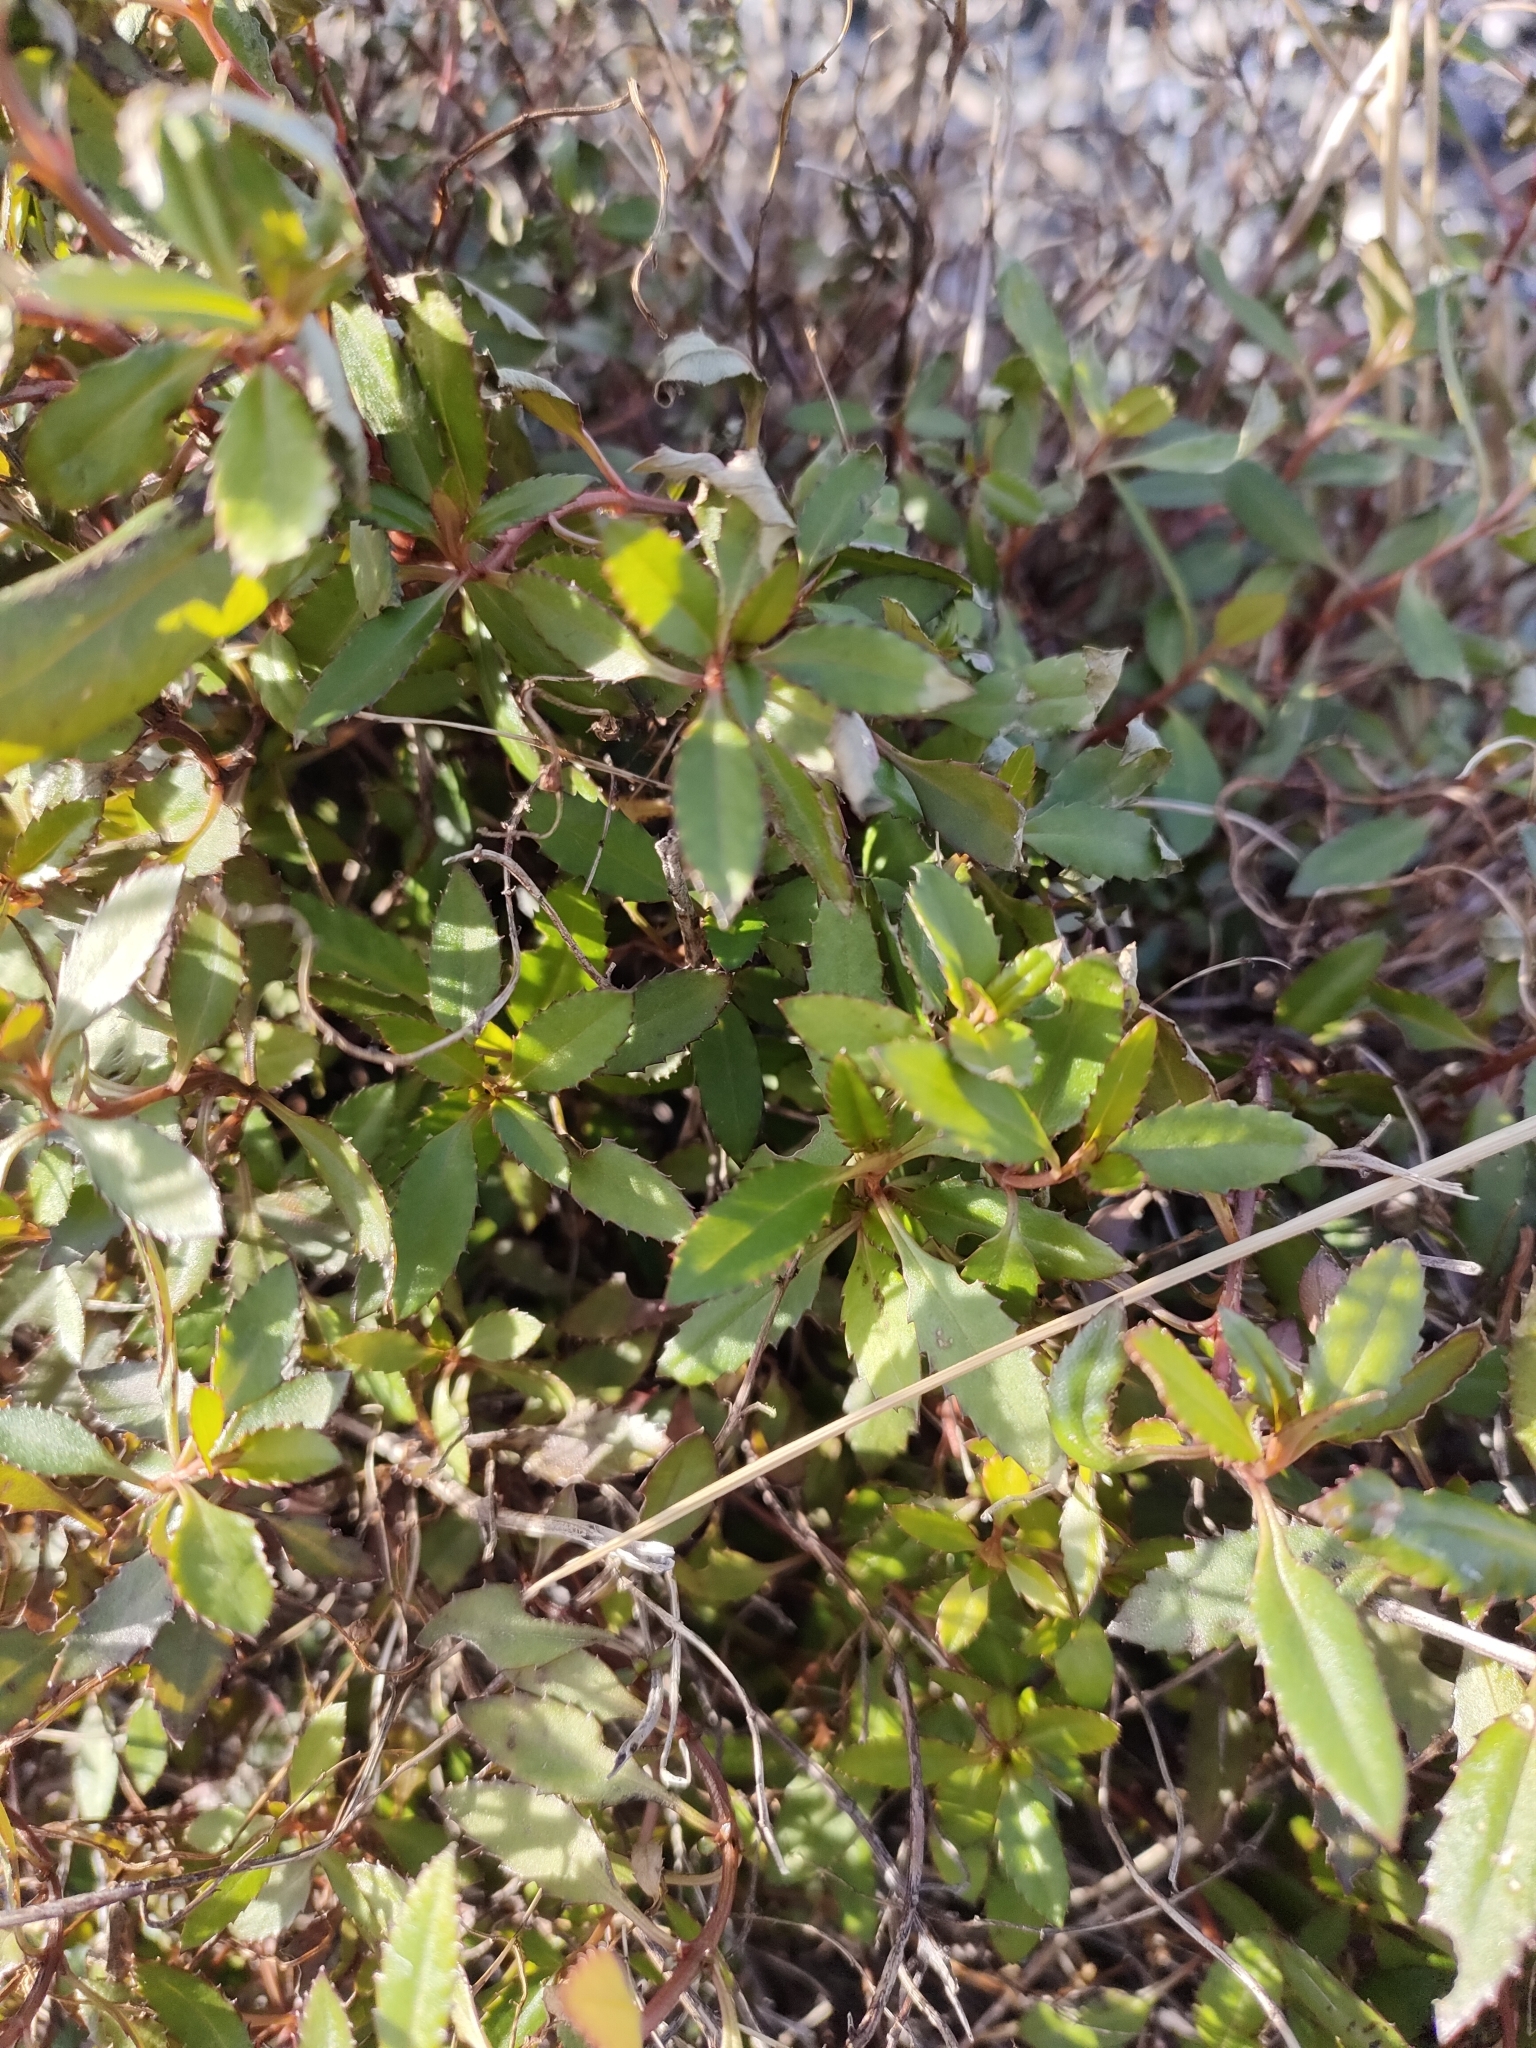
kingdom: Plantae
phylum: Tracheophyta
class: Magnoliopsida
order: Saxifragales
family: Haloragaceae
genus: Haloragis
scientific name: Haloragis erecta
